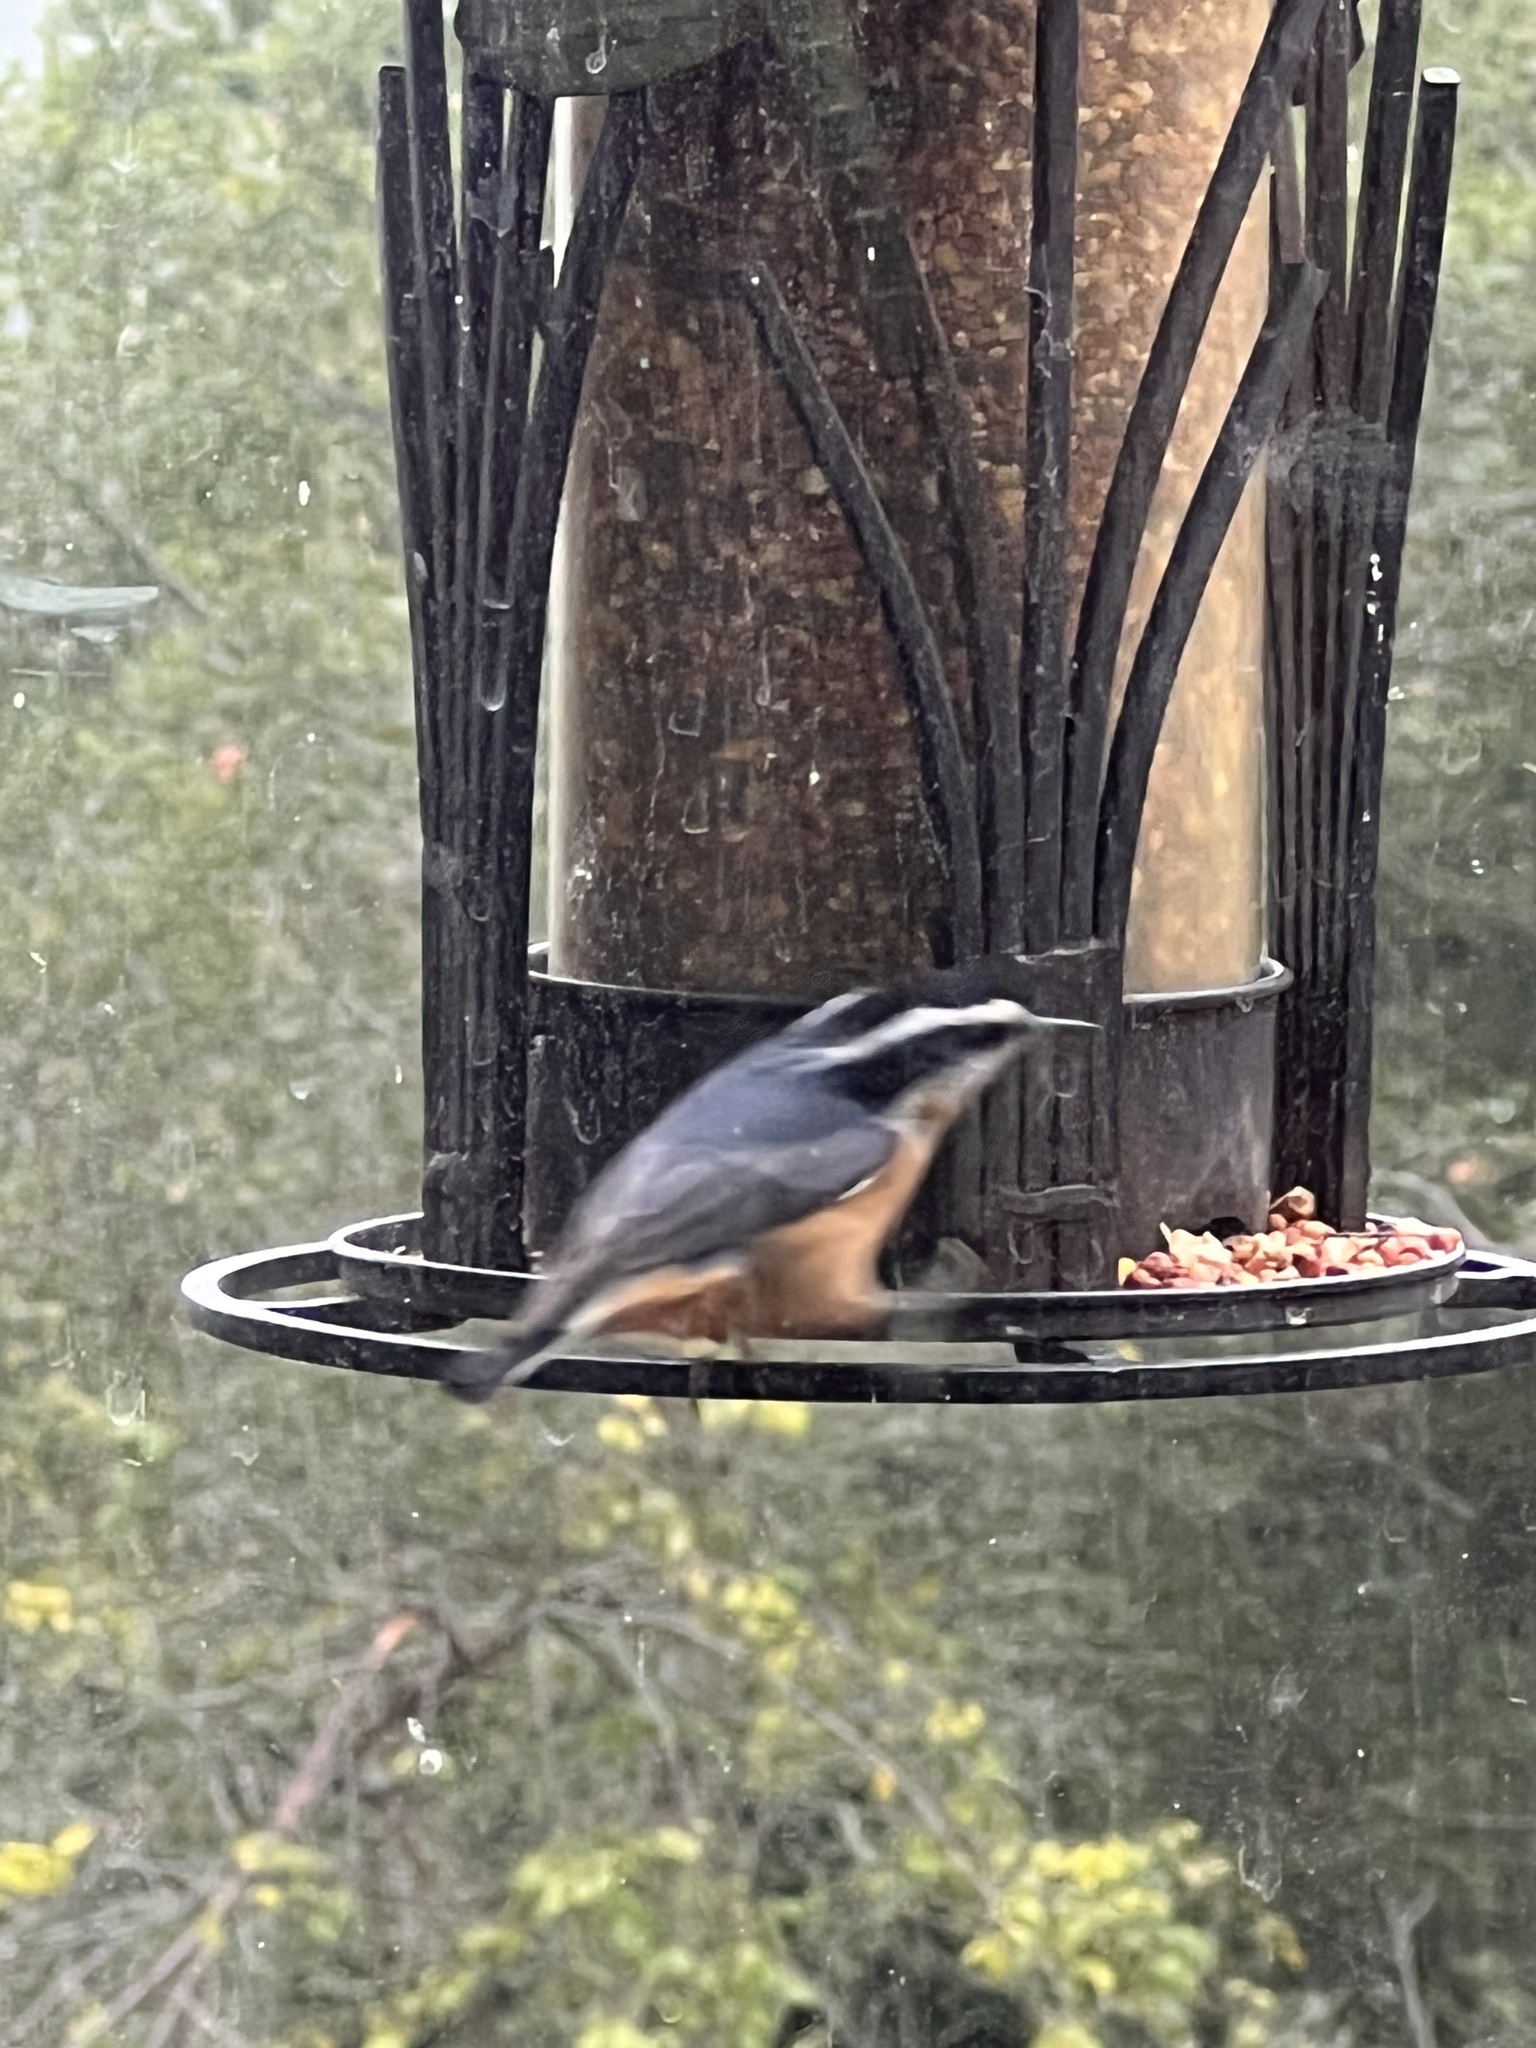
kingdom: Animalia
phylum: Chordata
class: Aves
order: Passeriformes
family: Sittidae
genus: Sitta
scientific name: Sitta canadensis
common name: Red-breasted nuthatch
